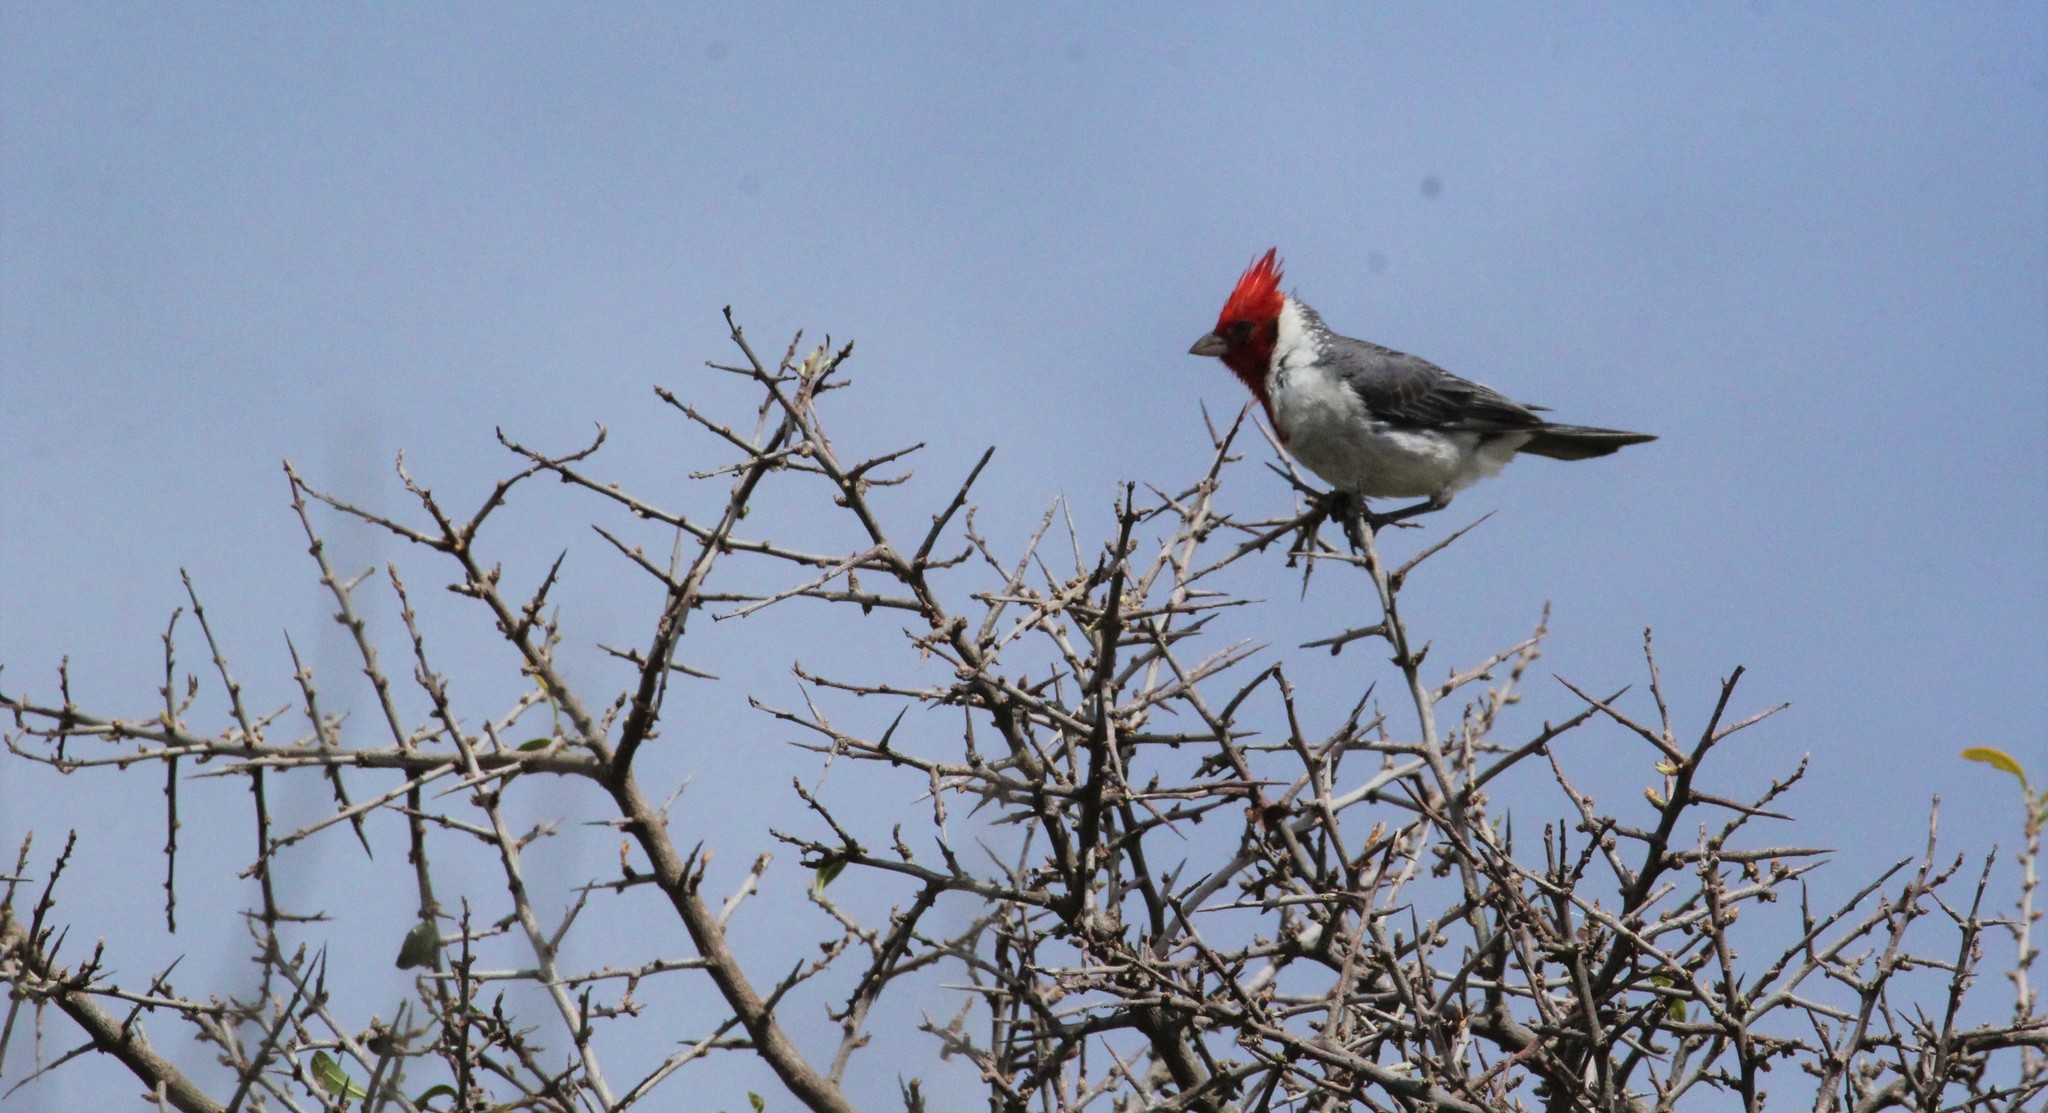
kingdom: Animalia
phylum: Chordata
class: Aves
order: Passeriformes
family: Thraupidae
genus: Paroaria
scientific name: Paroaria coronata
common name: Red-crested cardinal
